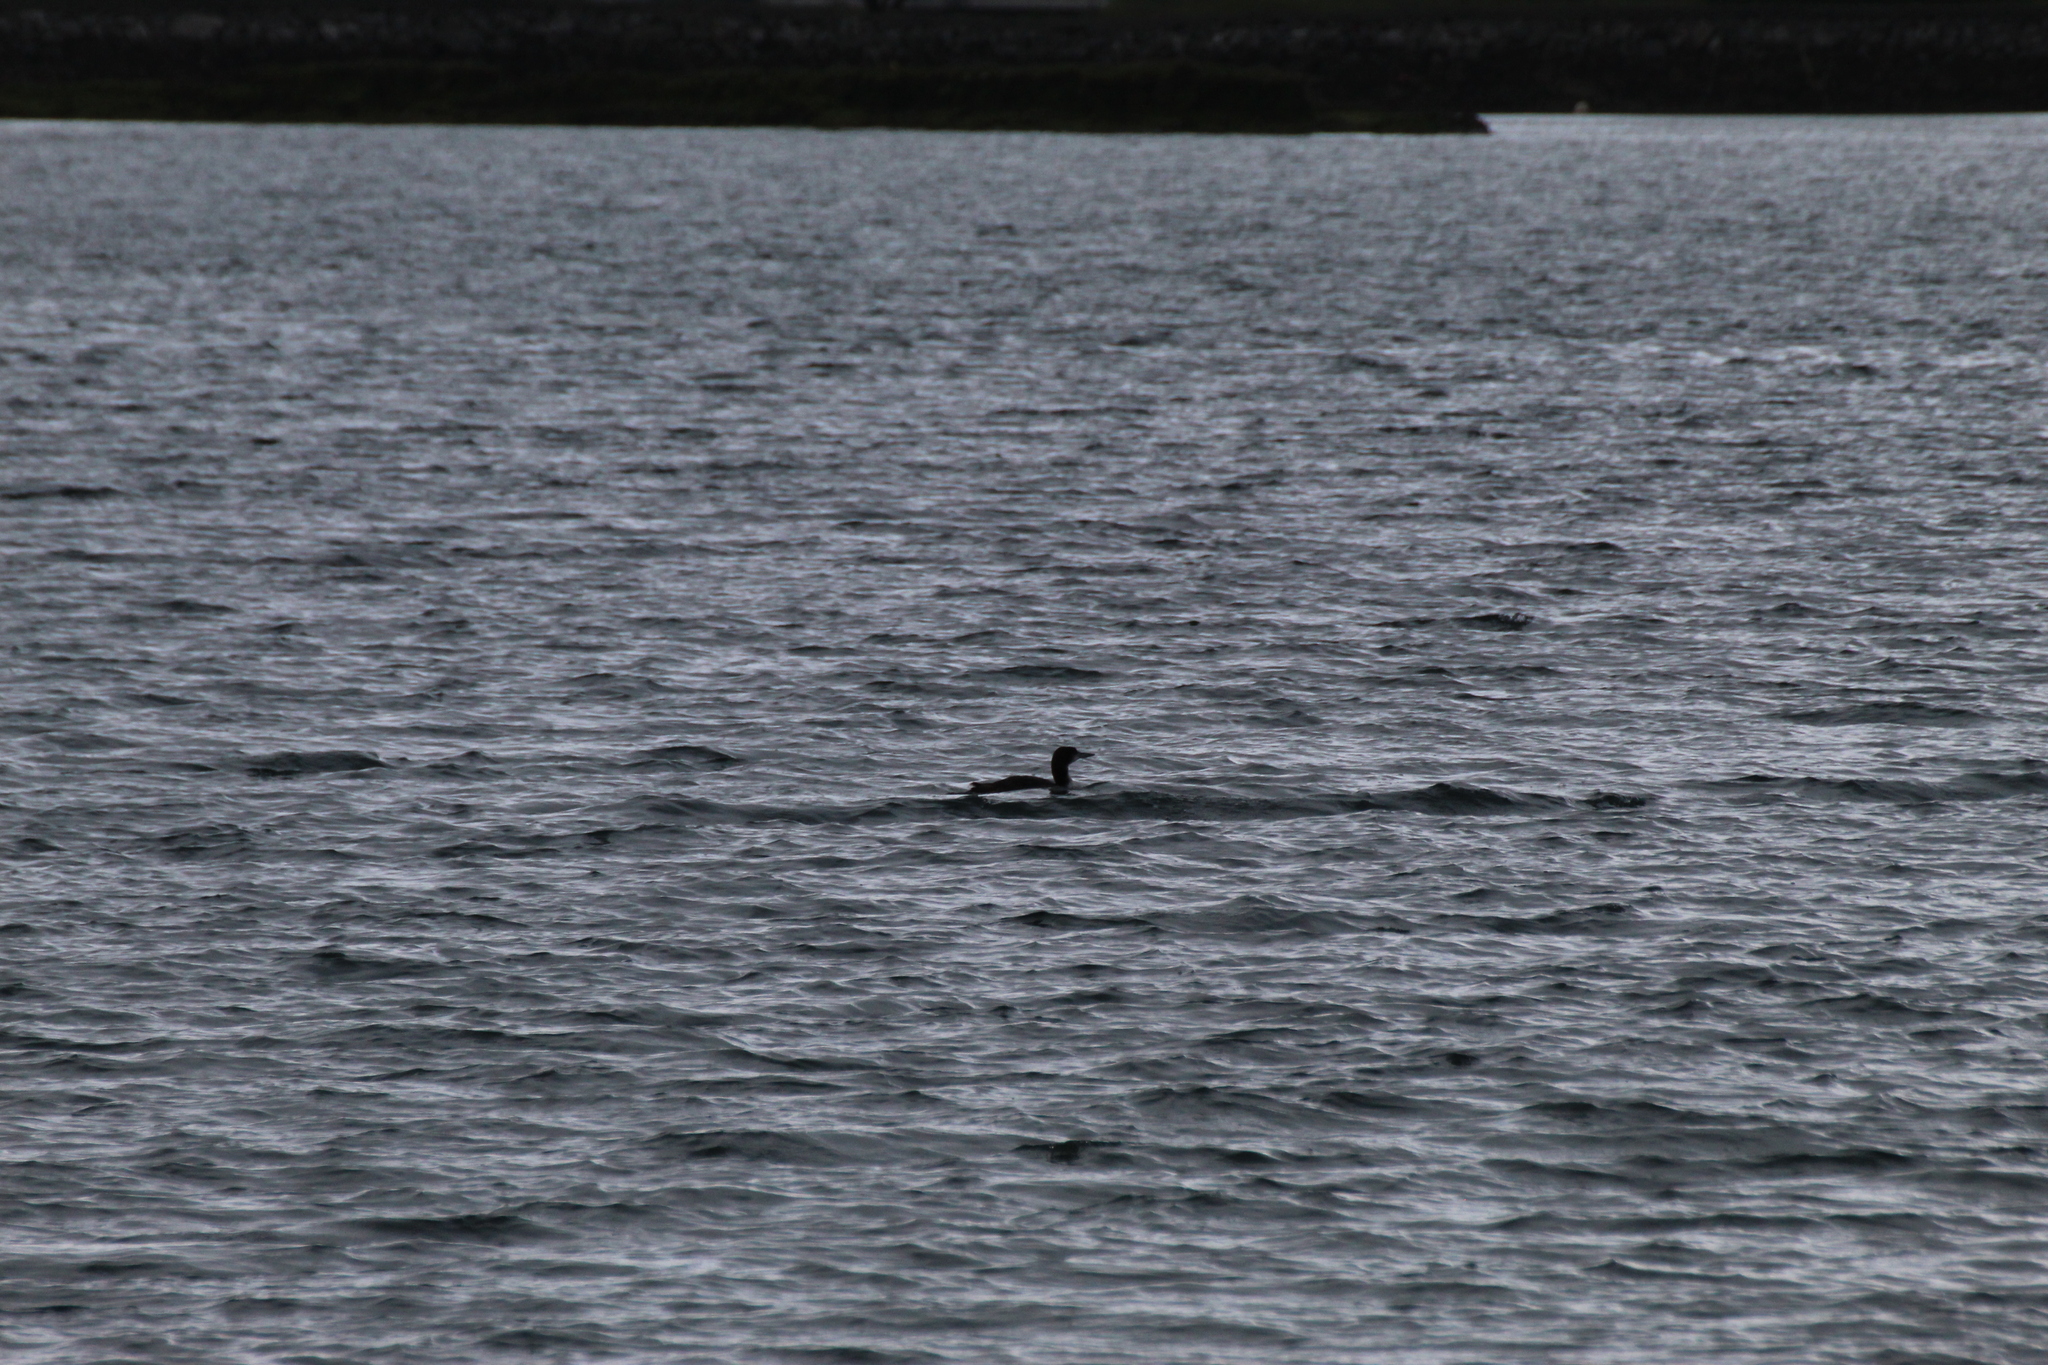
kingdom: Animalia
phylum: Chordata
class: Aves
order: Gaviiformes
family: Gaviidae
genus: Gavia
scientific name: Gavia immer
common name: Common loon
